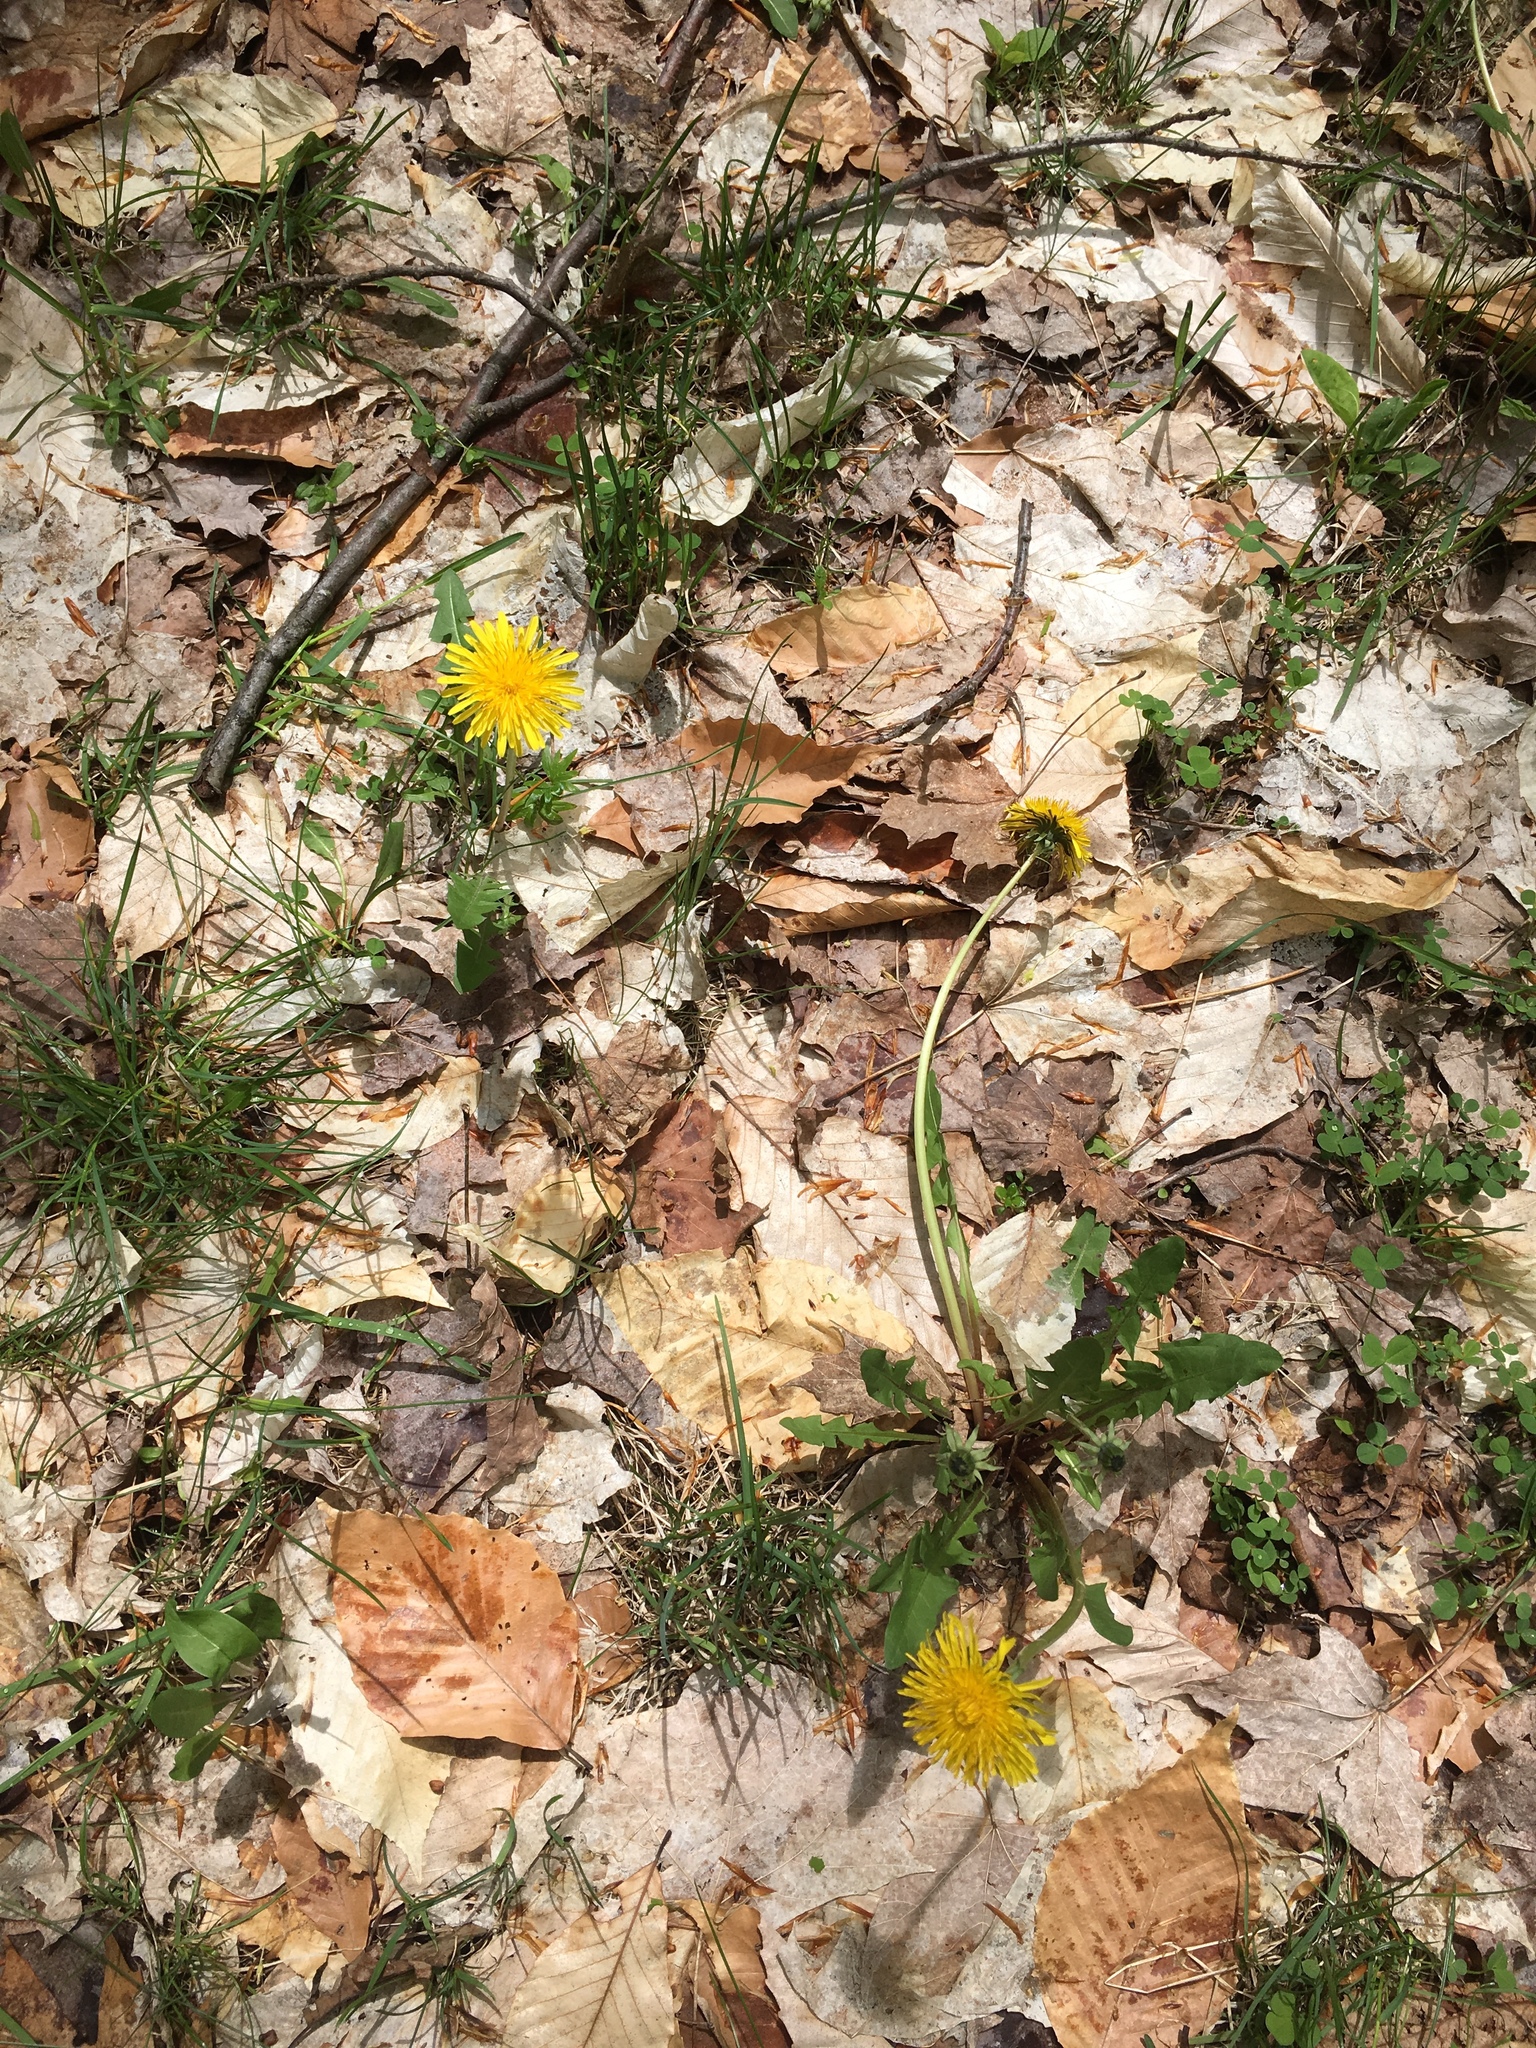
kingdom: Plantae
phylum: Tracheophyta
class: Magnoliopsida
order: Asterales
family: Asteraceae
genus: Taraxacum
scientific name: Taraxacum officinale
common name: Common dandelion
